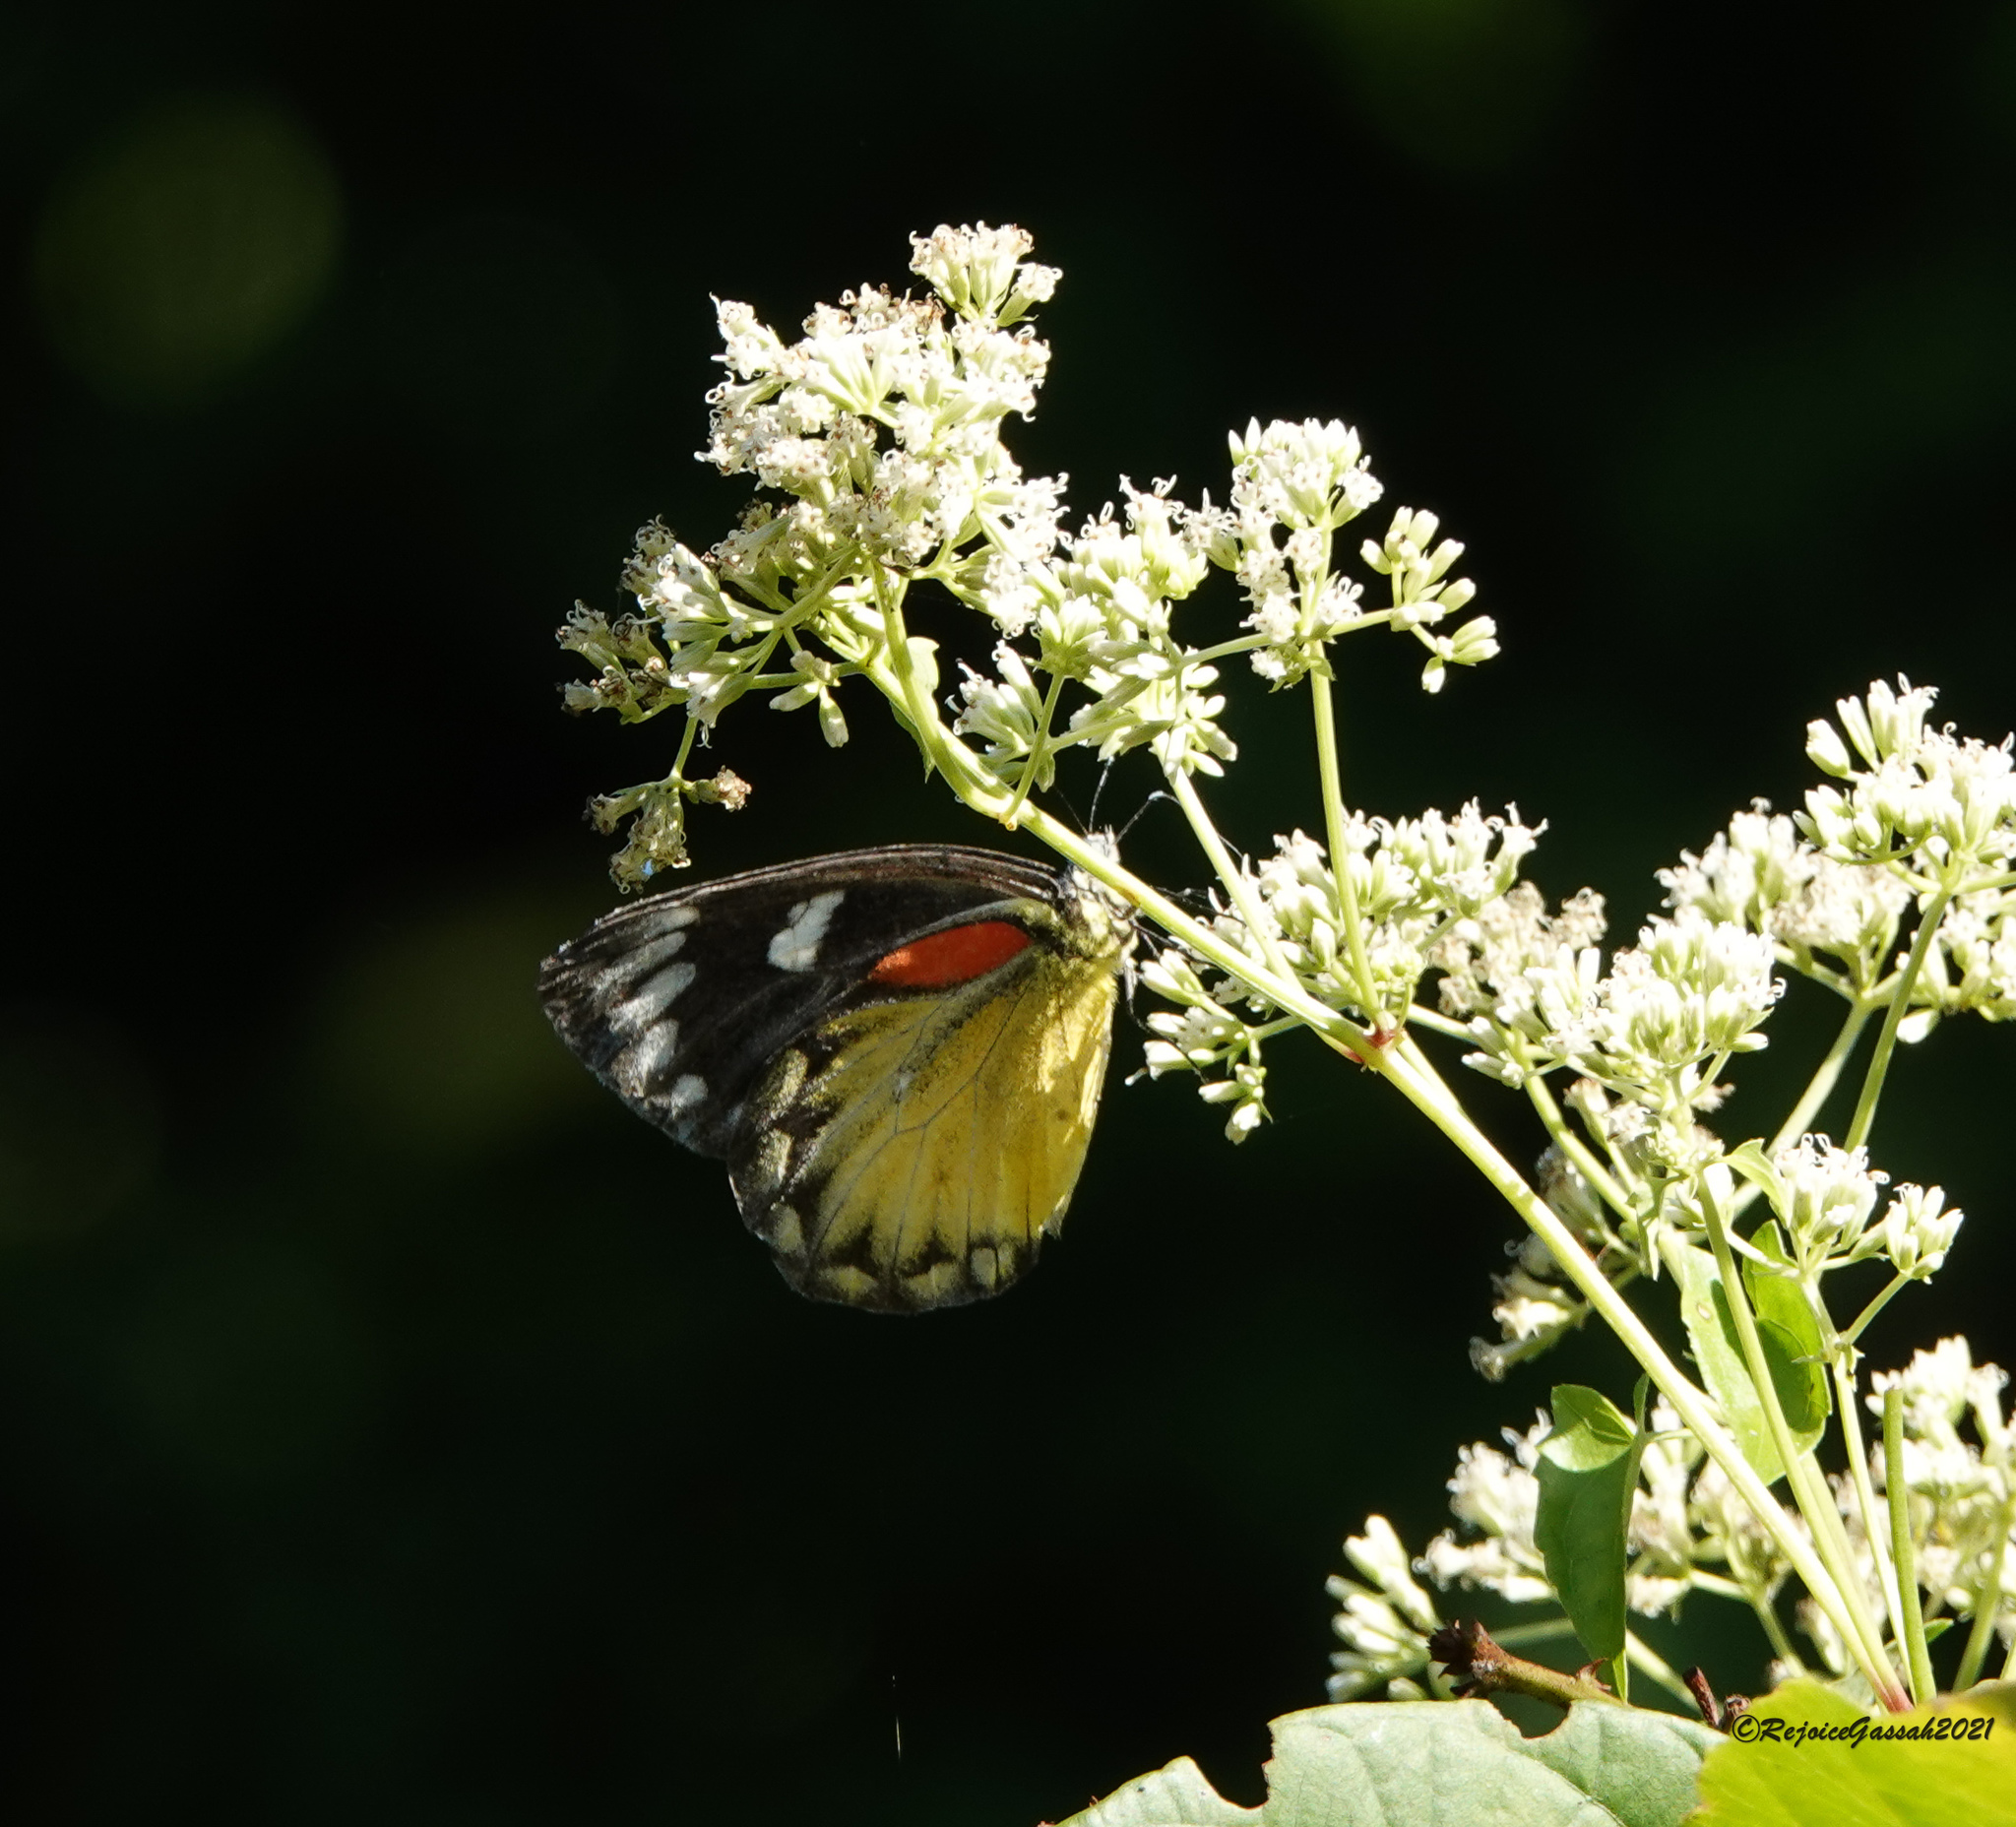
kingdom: Animalia
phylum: Arthropoda
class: Insecta
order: Lepidoptera
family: Pieridae
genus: Delias
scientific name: Delias descombesi
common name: Red-spot jezebel
